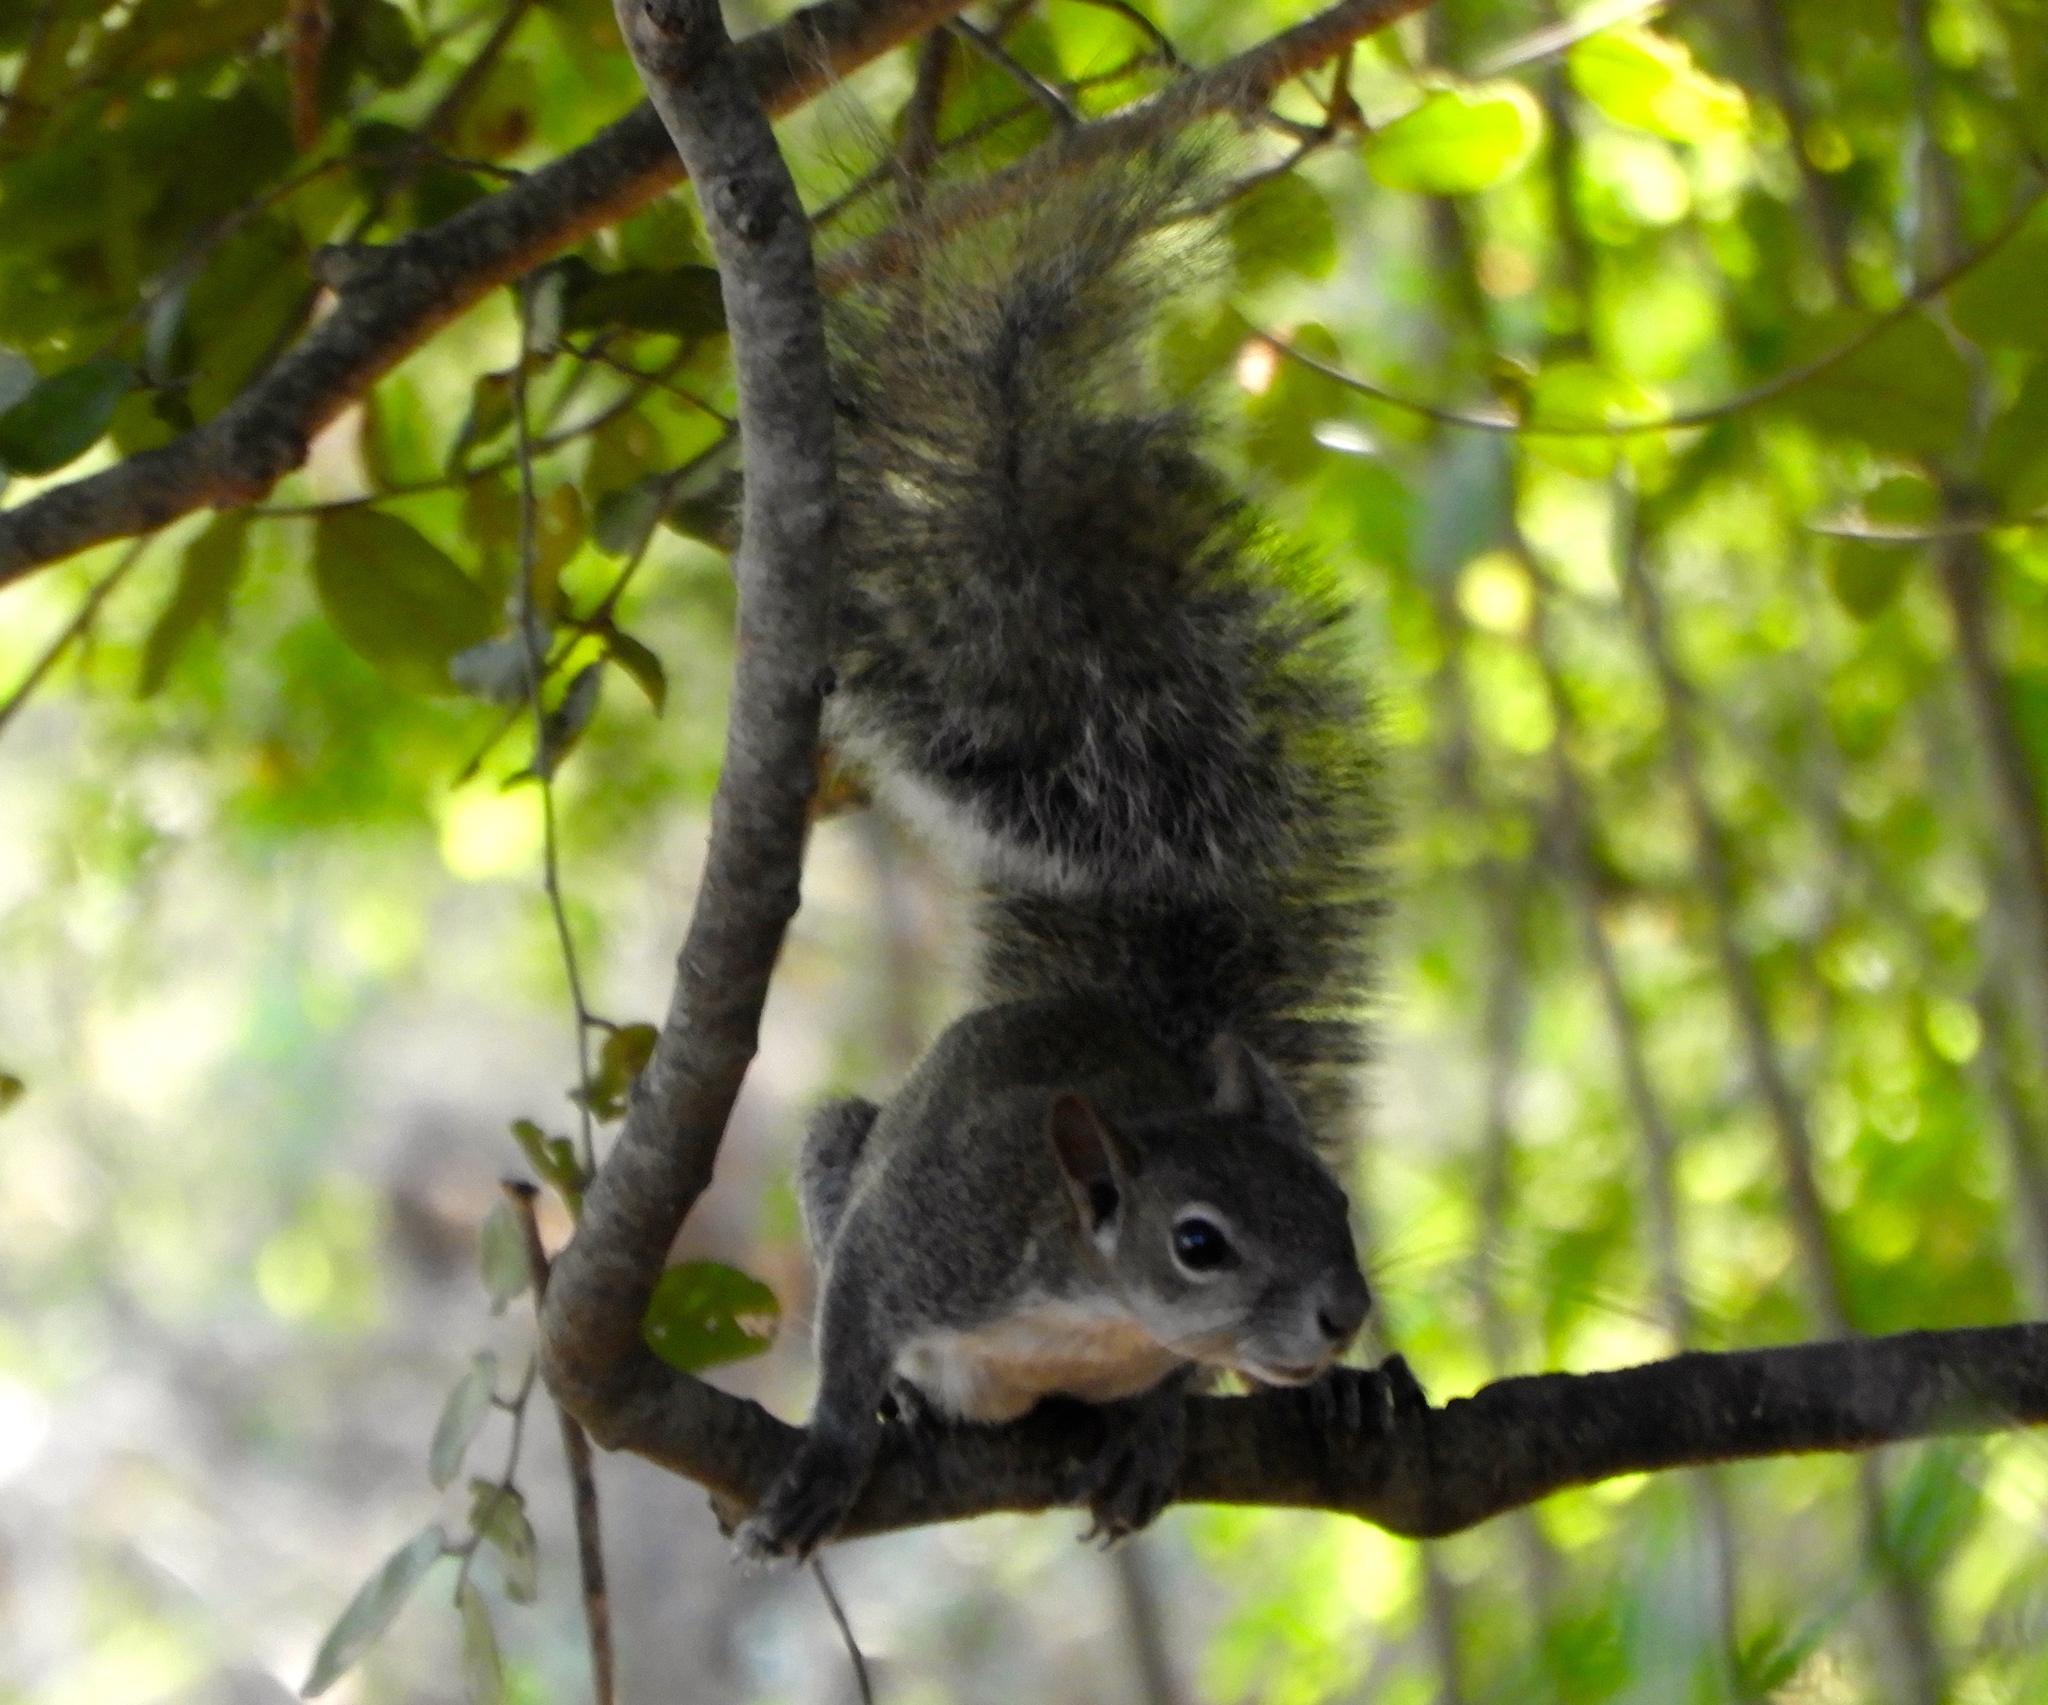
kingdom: Animalia
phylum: Chordata
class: Mammalia
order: Rodentia
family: Sciuridae
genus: Sciurus
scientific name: Sciurus colliaei
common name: Collie's squirrel
